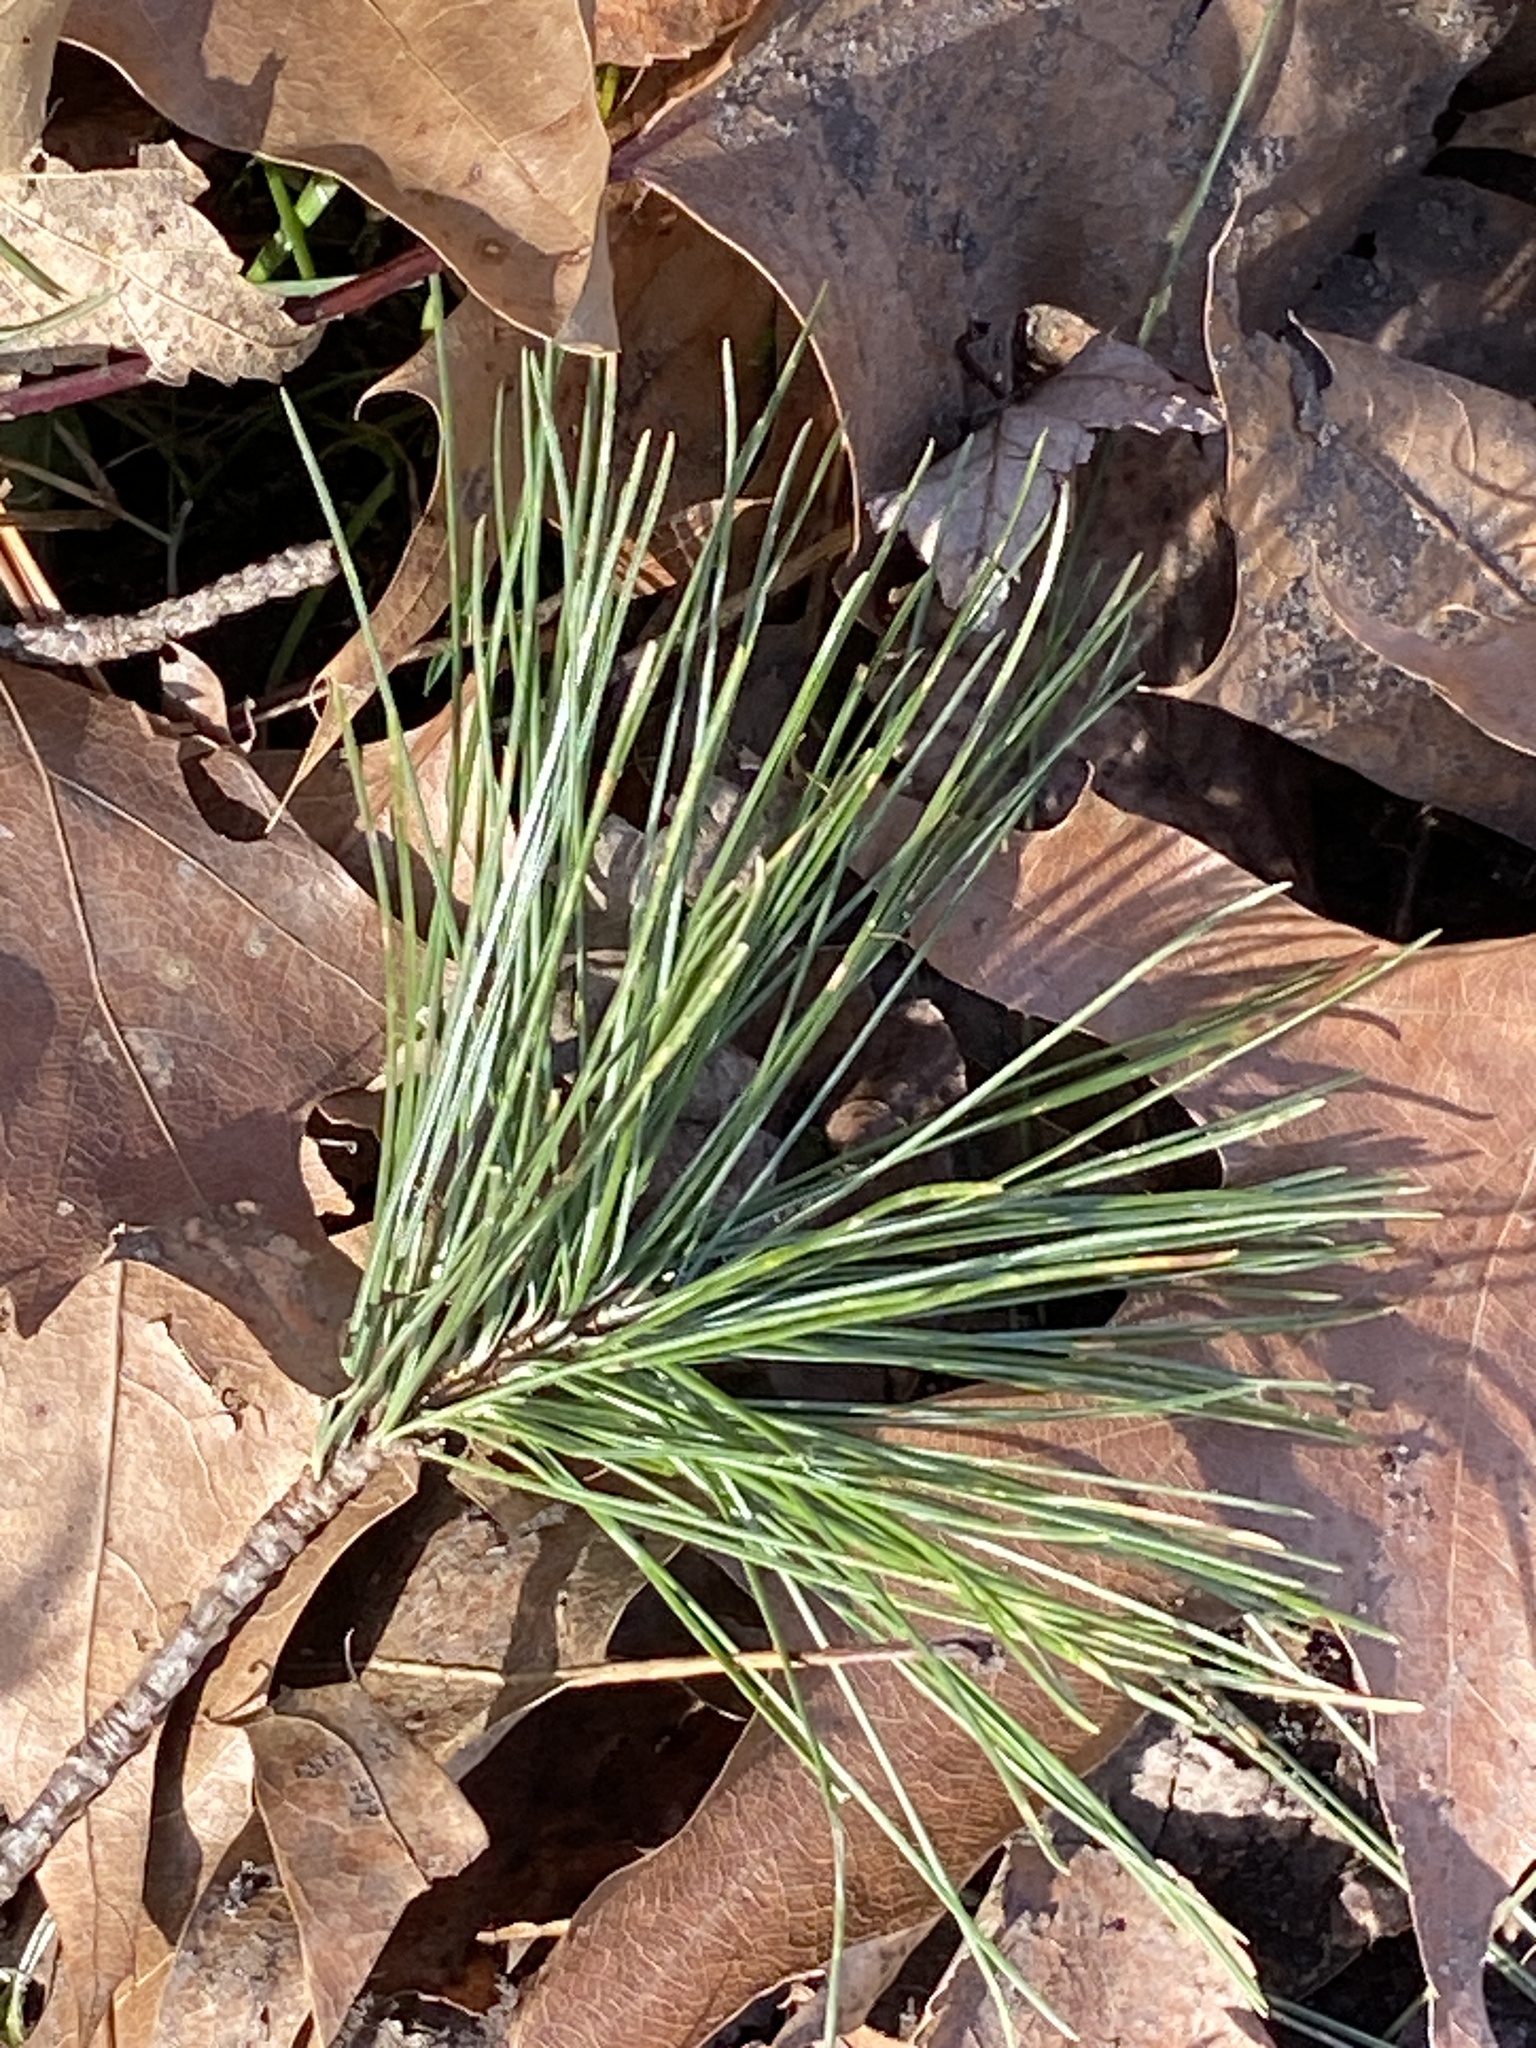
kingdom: Plantae
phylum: Tracheophyta
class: Pinopsida
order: Pinales
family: Pinaceae
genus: Pinus
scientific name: Pinus strobus
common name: Weymouth pine
